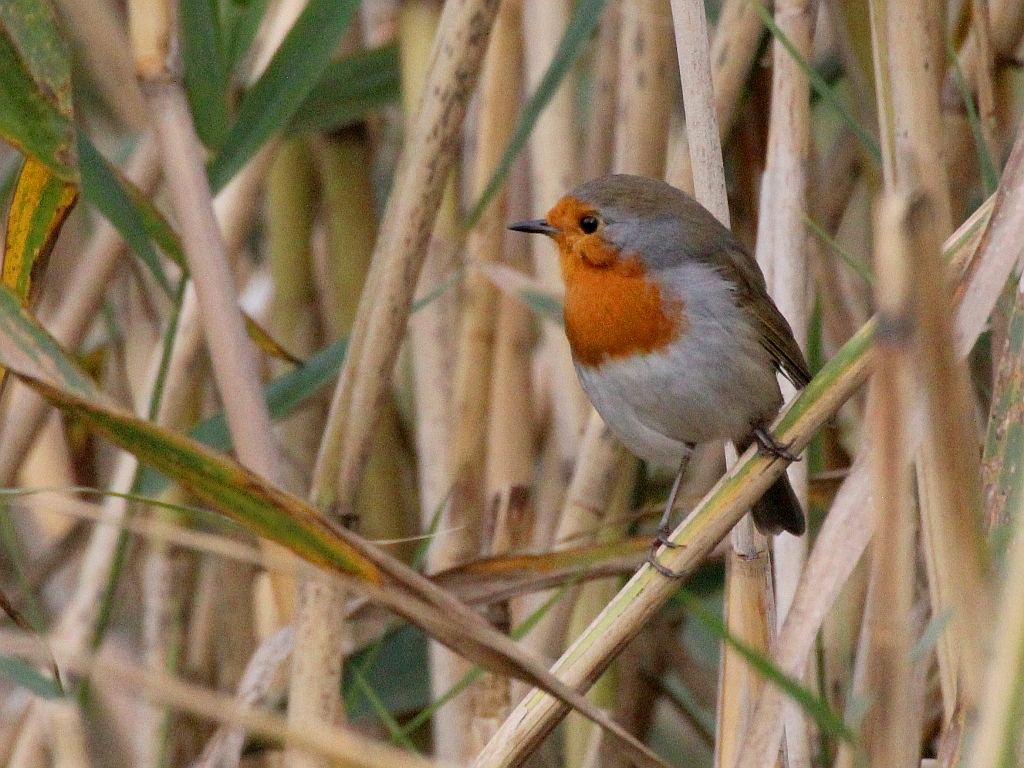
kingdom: Animalia
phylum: Chordata
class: Aves
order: Passeriformes
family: Muscicapidae
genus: Erithacus
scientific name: Erithacus rubecula
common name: European robin
